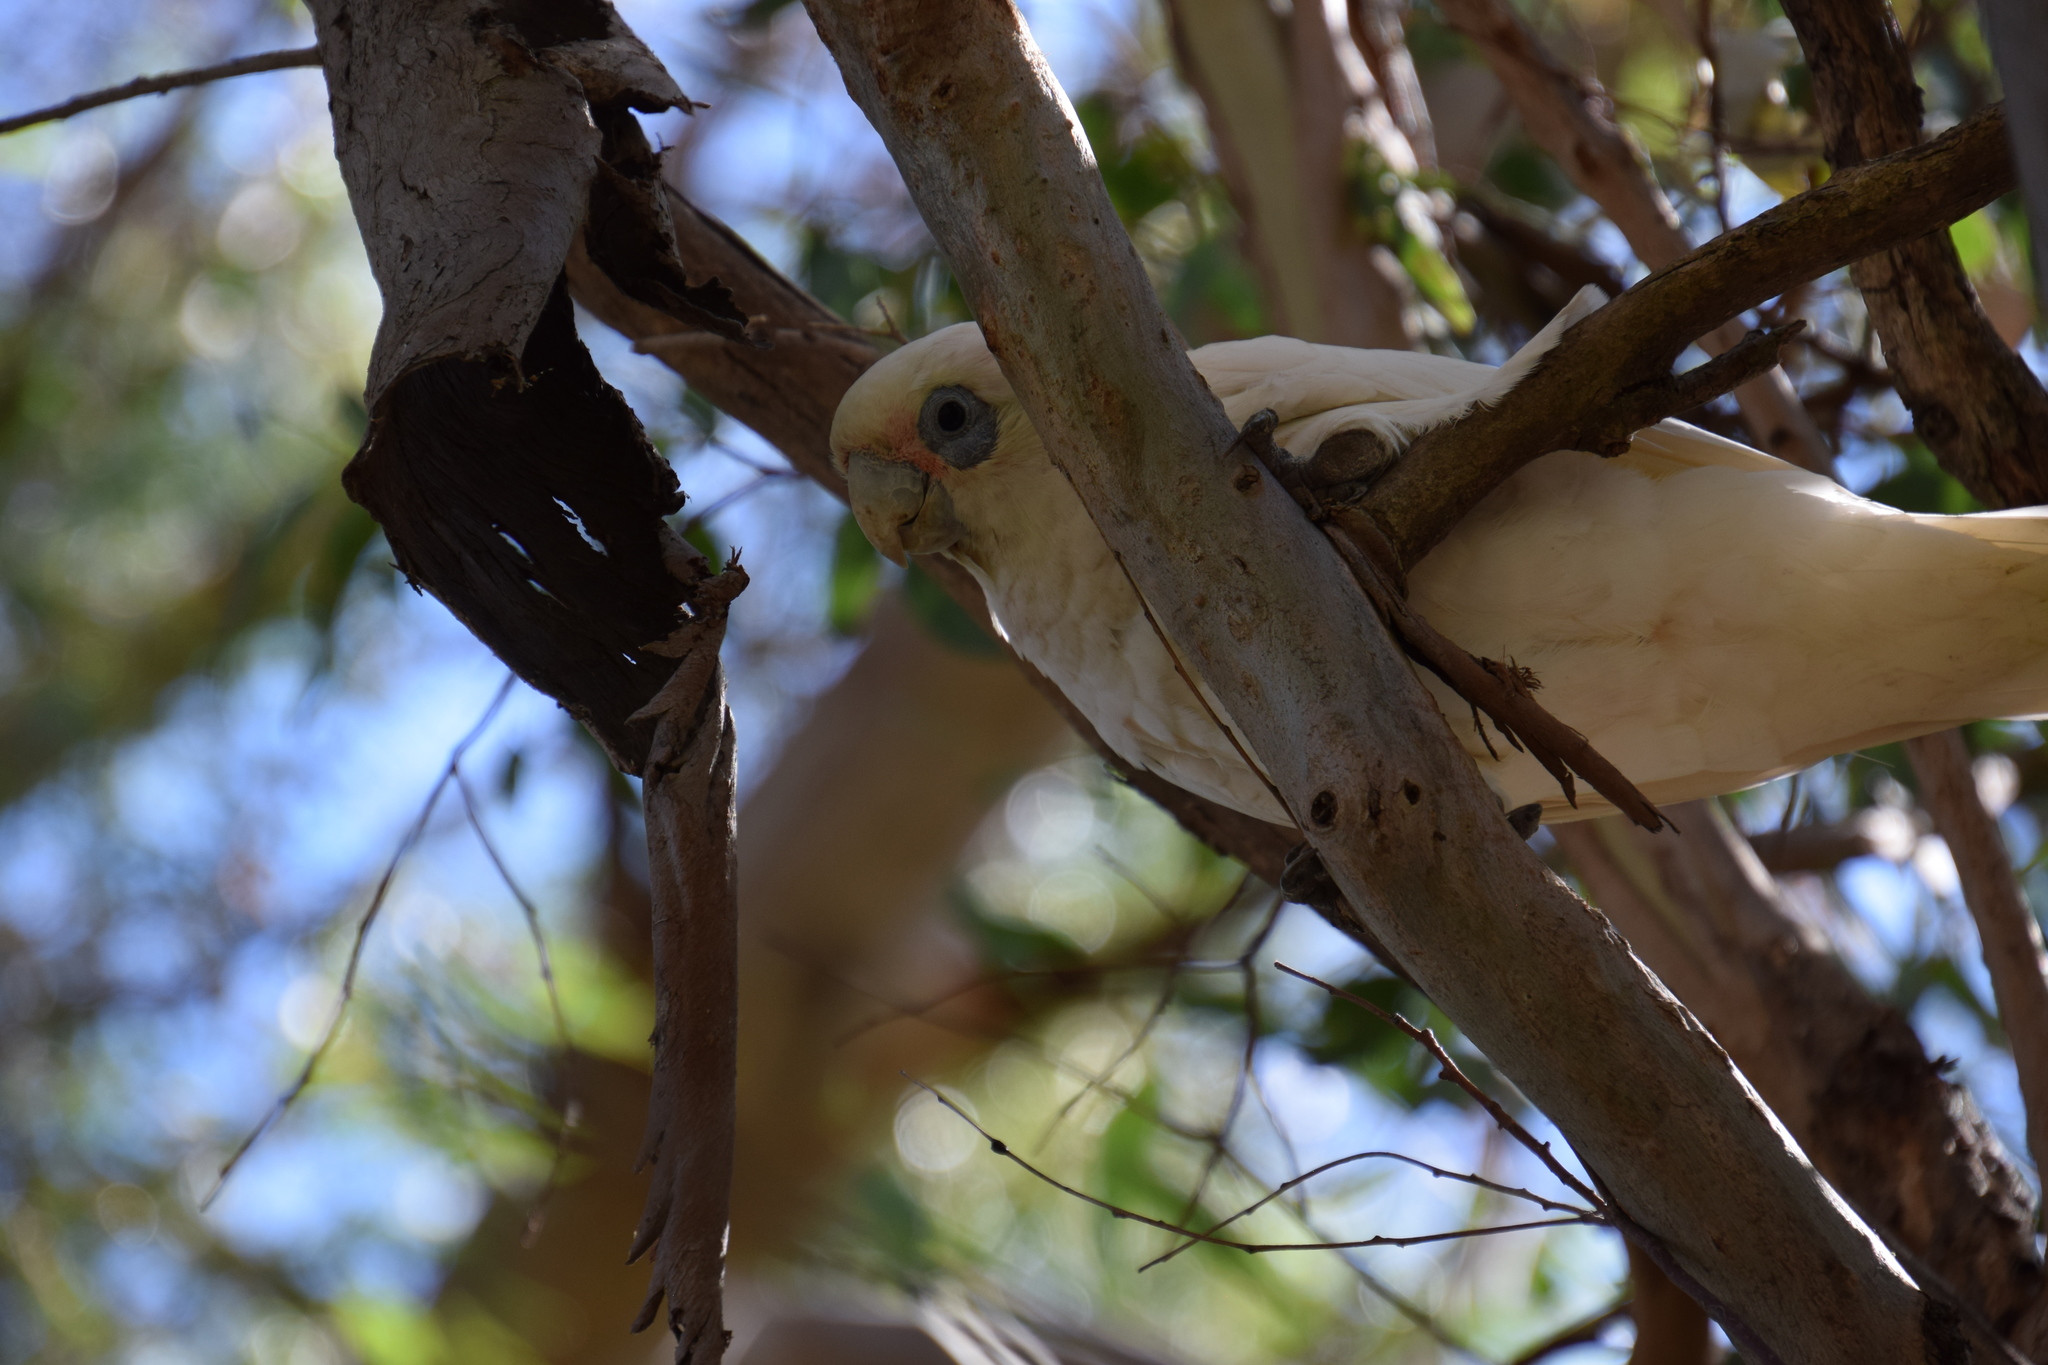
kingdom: Animalia
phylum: Chordata
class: Aves
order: Psittaciformes
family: Psittacidae
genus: Cacatua
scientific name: Cacatua sanguinea
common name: Little corella
